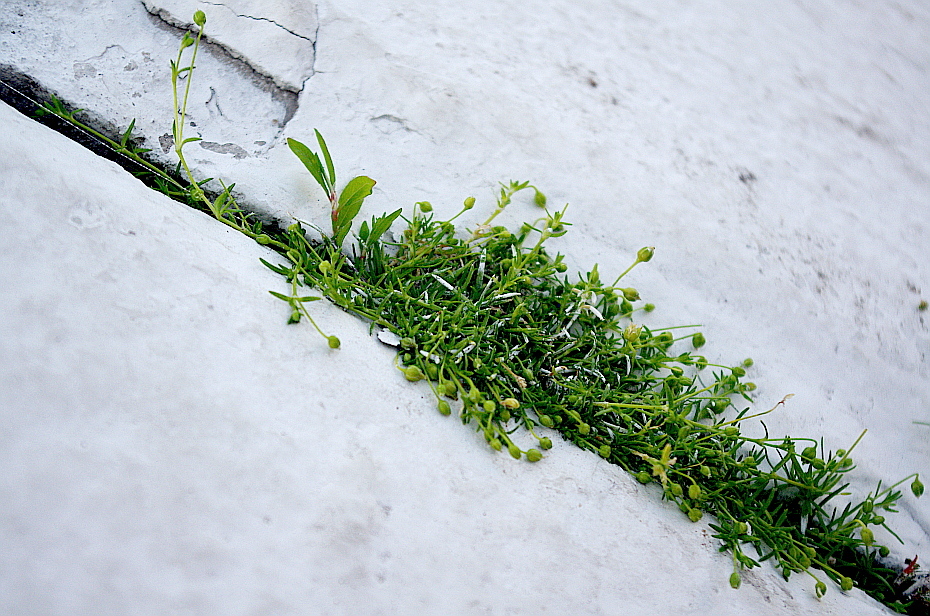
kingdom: Plantae
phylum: Tracheophyta
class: Magnoliopsida
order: Caryophyllales
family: Caryophyllaceae
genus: Sagina
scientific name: Sagina procumbens
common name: Procumbent pearlwort
